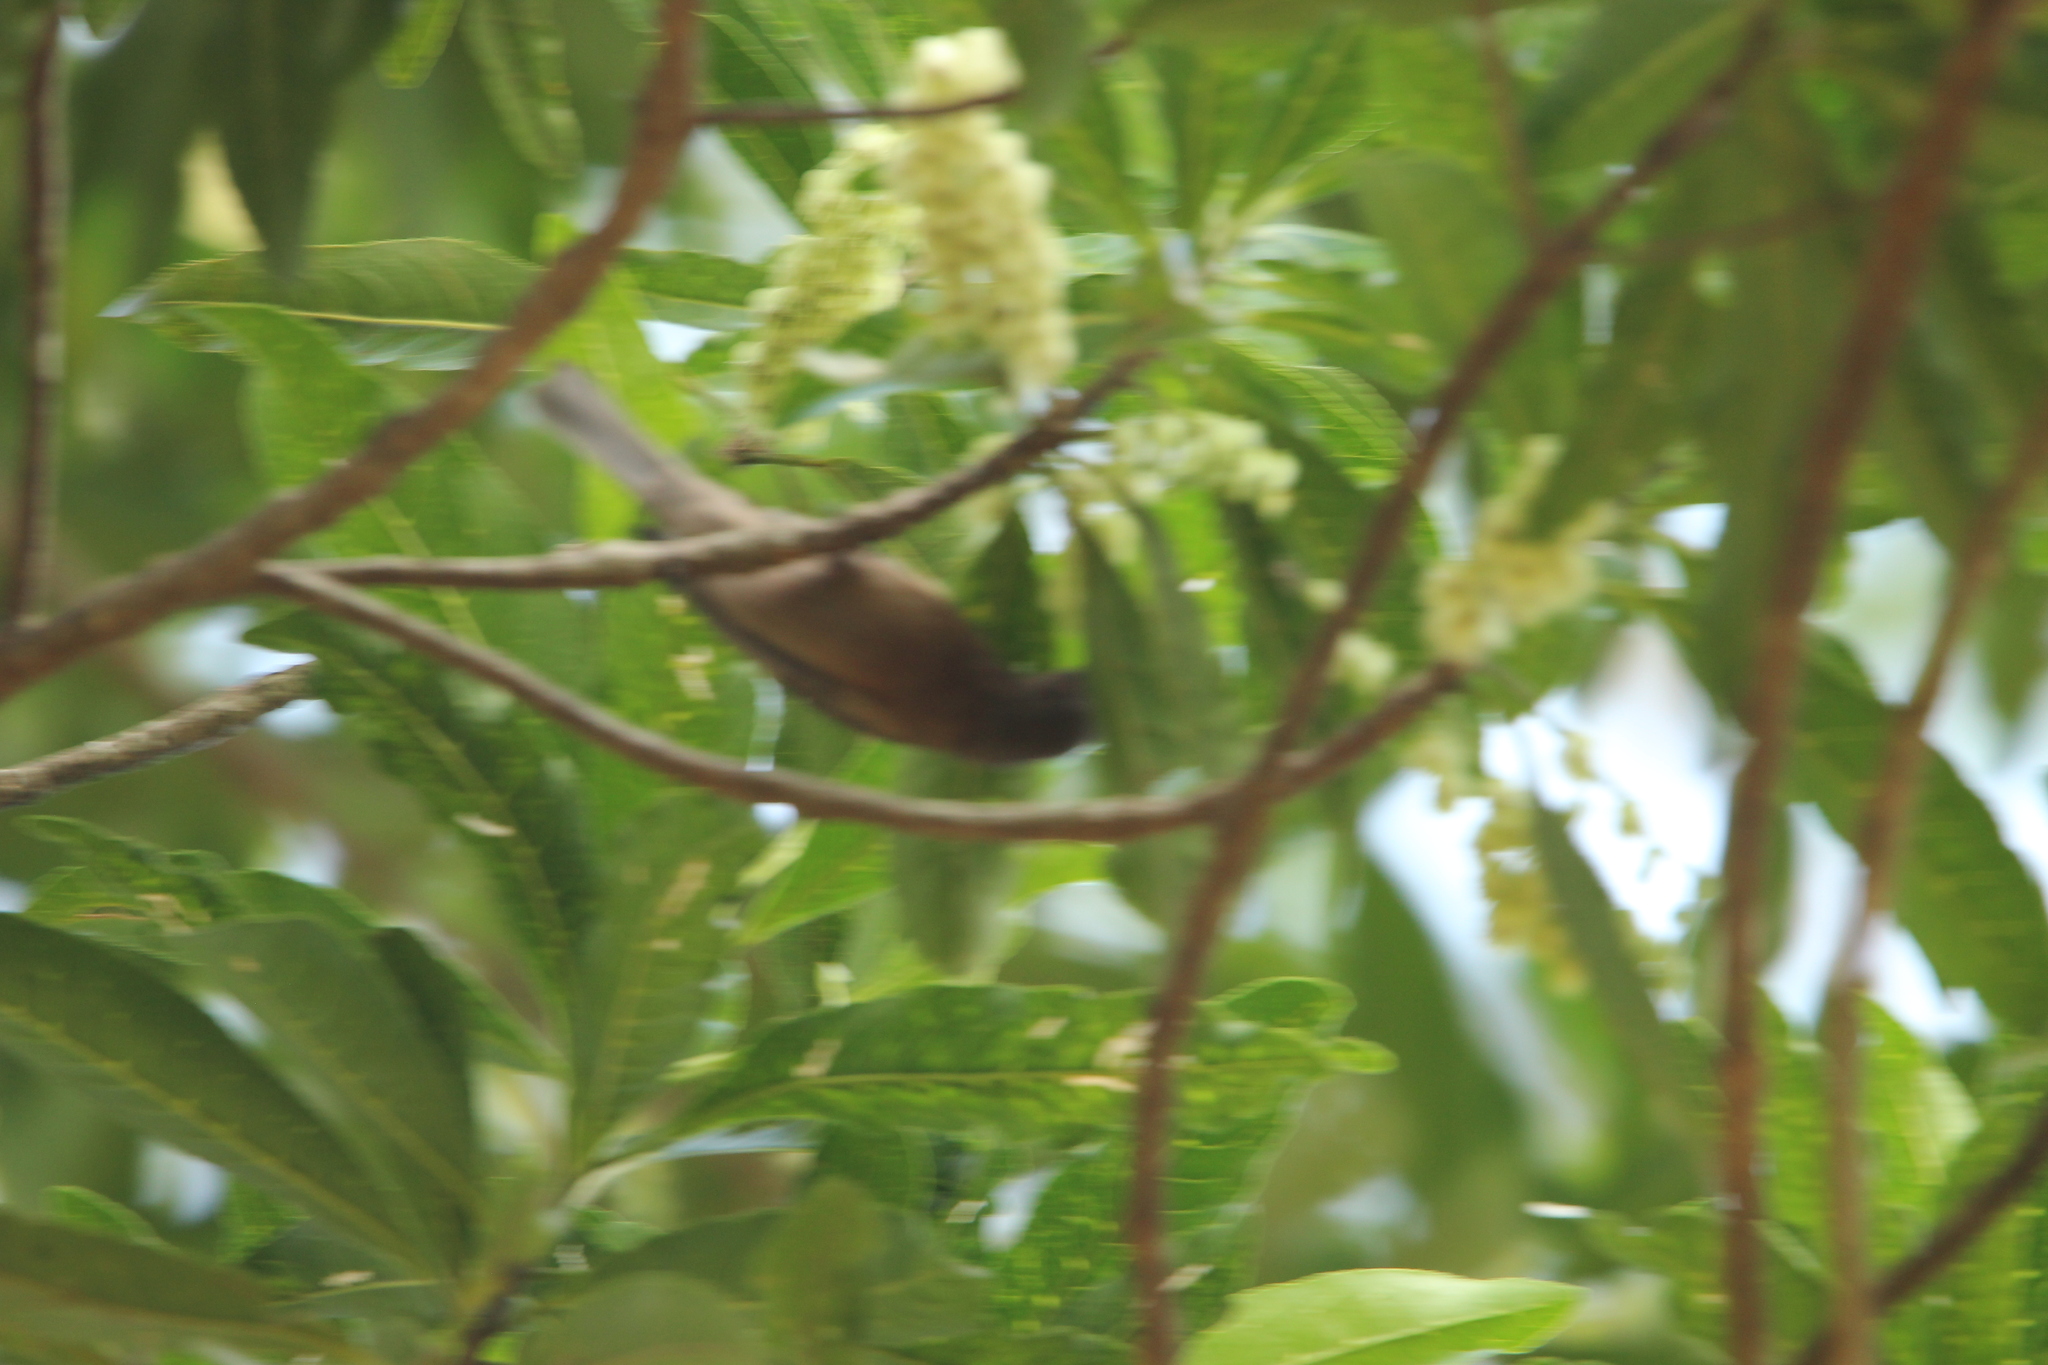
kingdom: Animalia
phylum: Chordata
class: Aves
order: Passeriformes
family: Meliphagidae
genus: Myzomela
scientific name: Myzomela obscura
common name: Dusky myzomela
